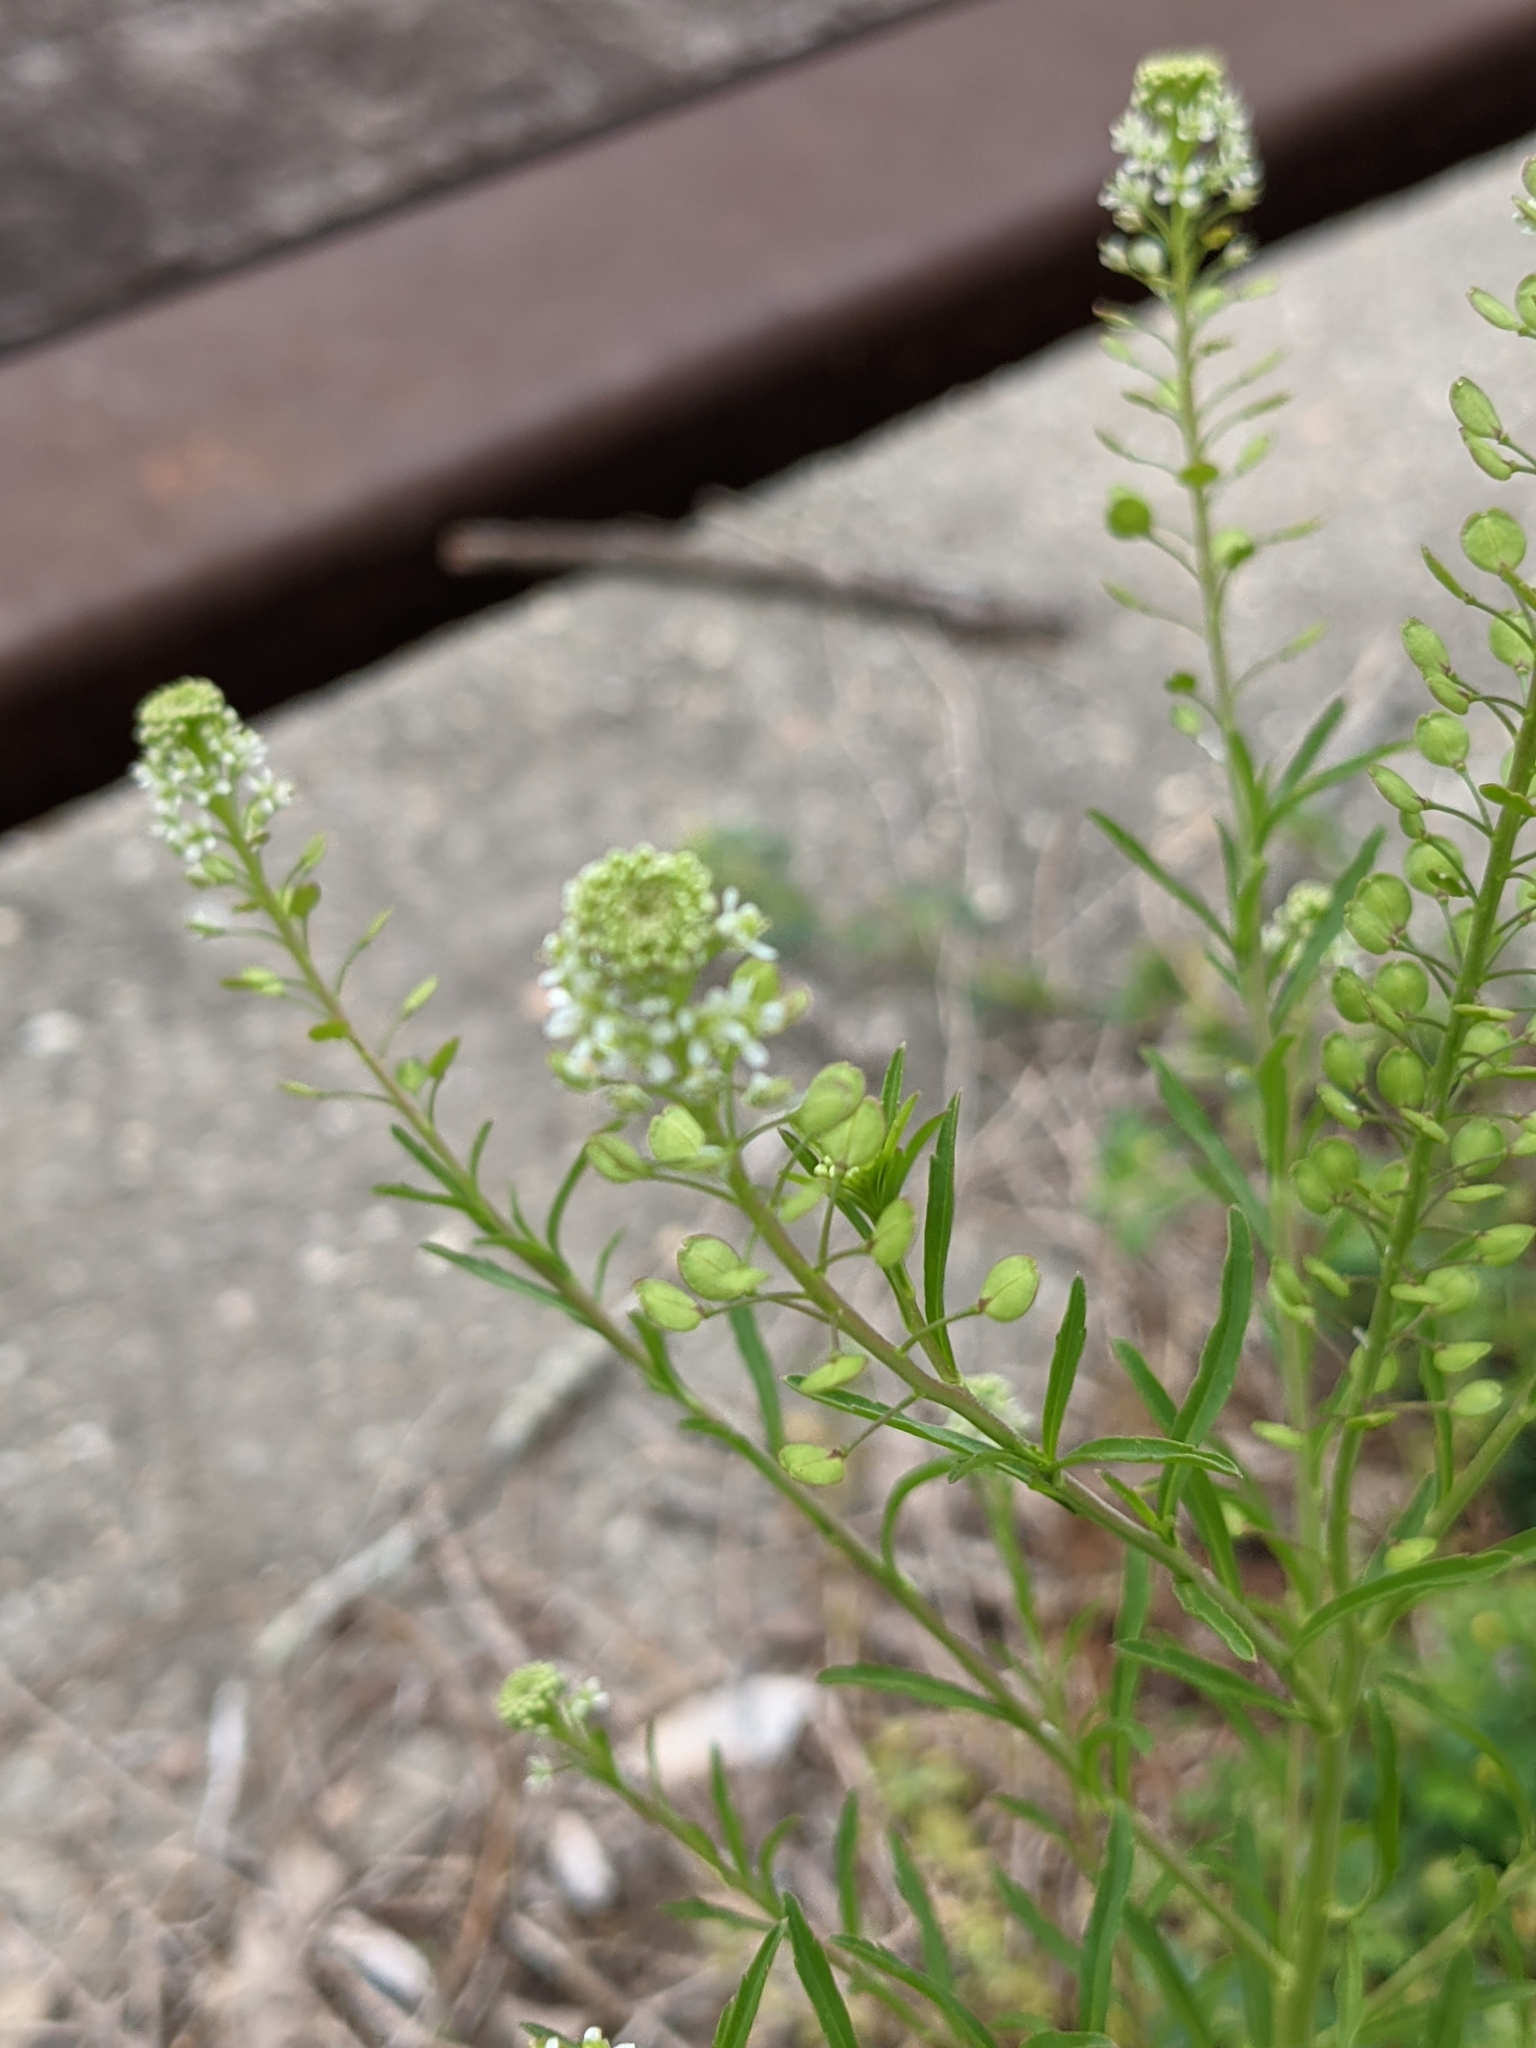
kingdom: Plantae
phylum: Tracheophyta
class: Magnoliopsida
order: Brassicales
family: Brassicaceae
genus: Lepidium
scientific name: Lepidium virginicum
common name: Least pepperwort
